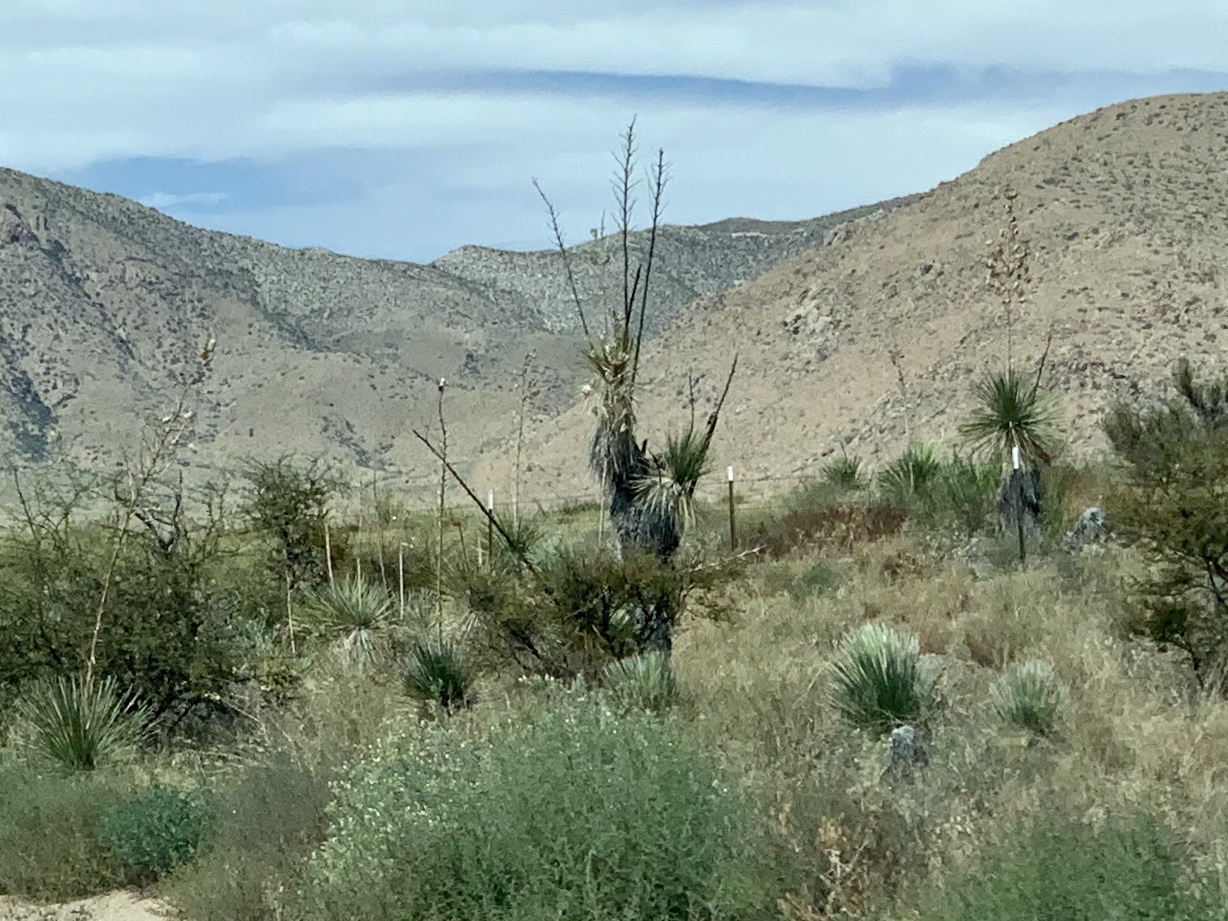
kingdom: Plantae
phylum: Tracheophyta
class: Liliopsida
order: Asparagales
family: Asparagaceae
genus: Yucca
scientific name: Yucca elata
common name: Palmella
